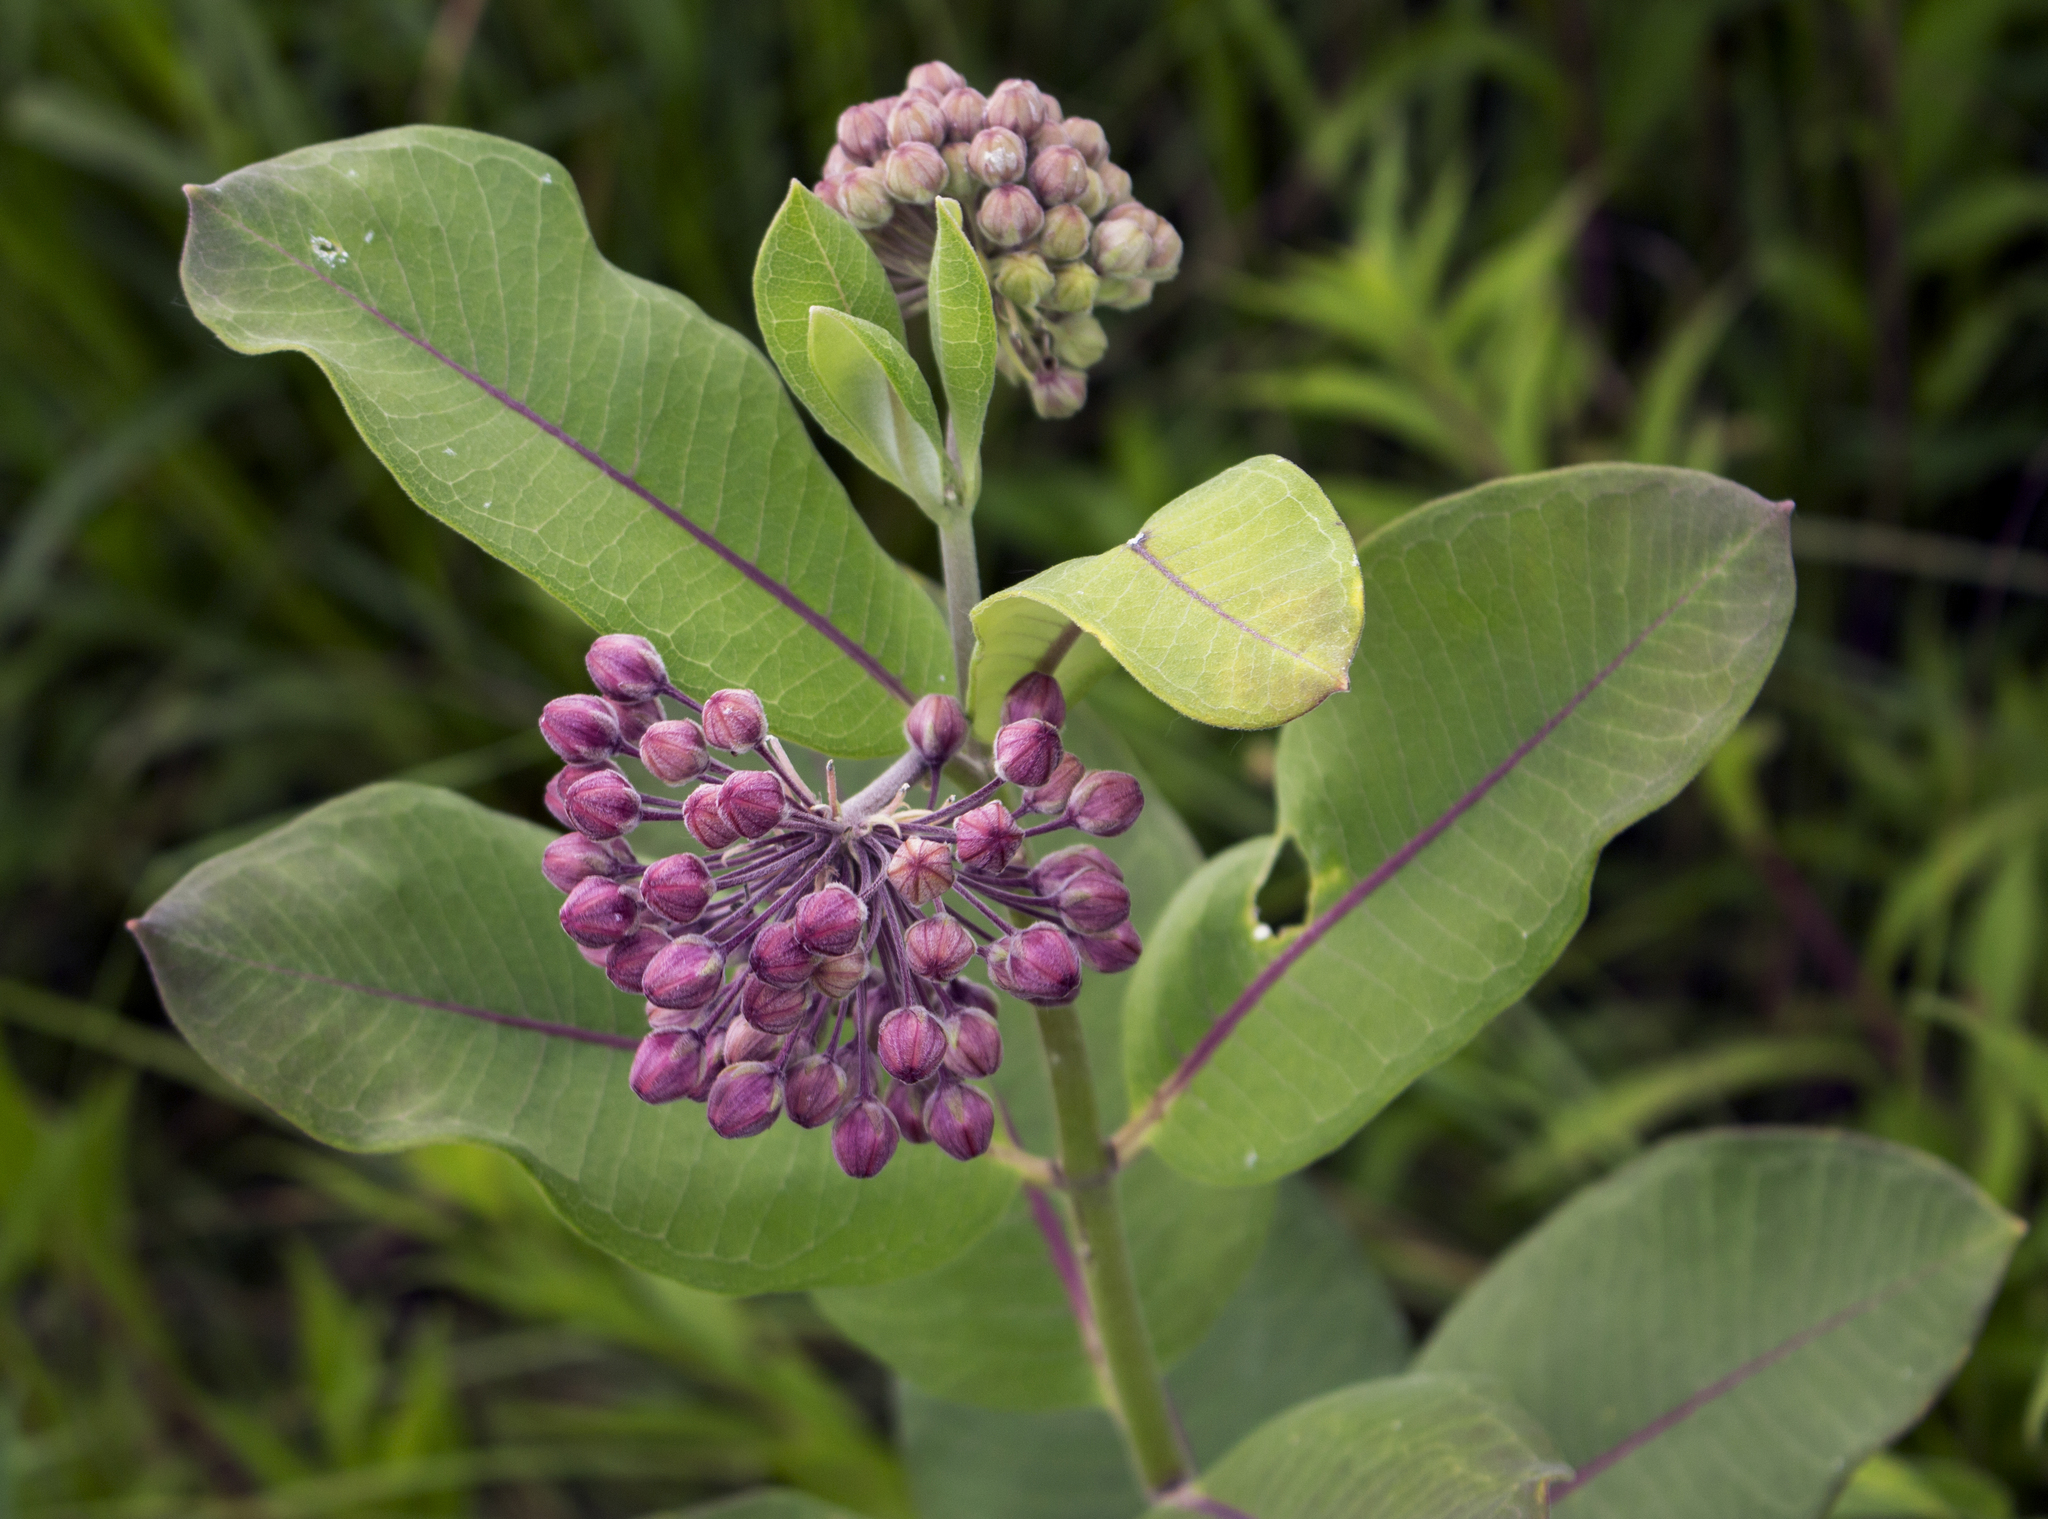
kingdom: Plantae
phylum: Tracheophyta
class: Magnoliopsida
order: Gentianales
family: Apocynaceae
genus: Asclepias
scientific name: Asclepias syriaca
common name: Common milkweed
